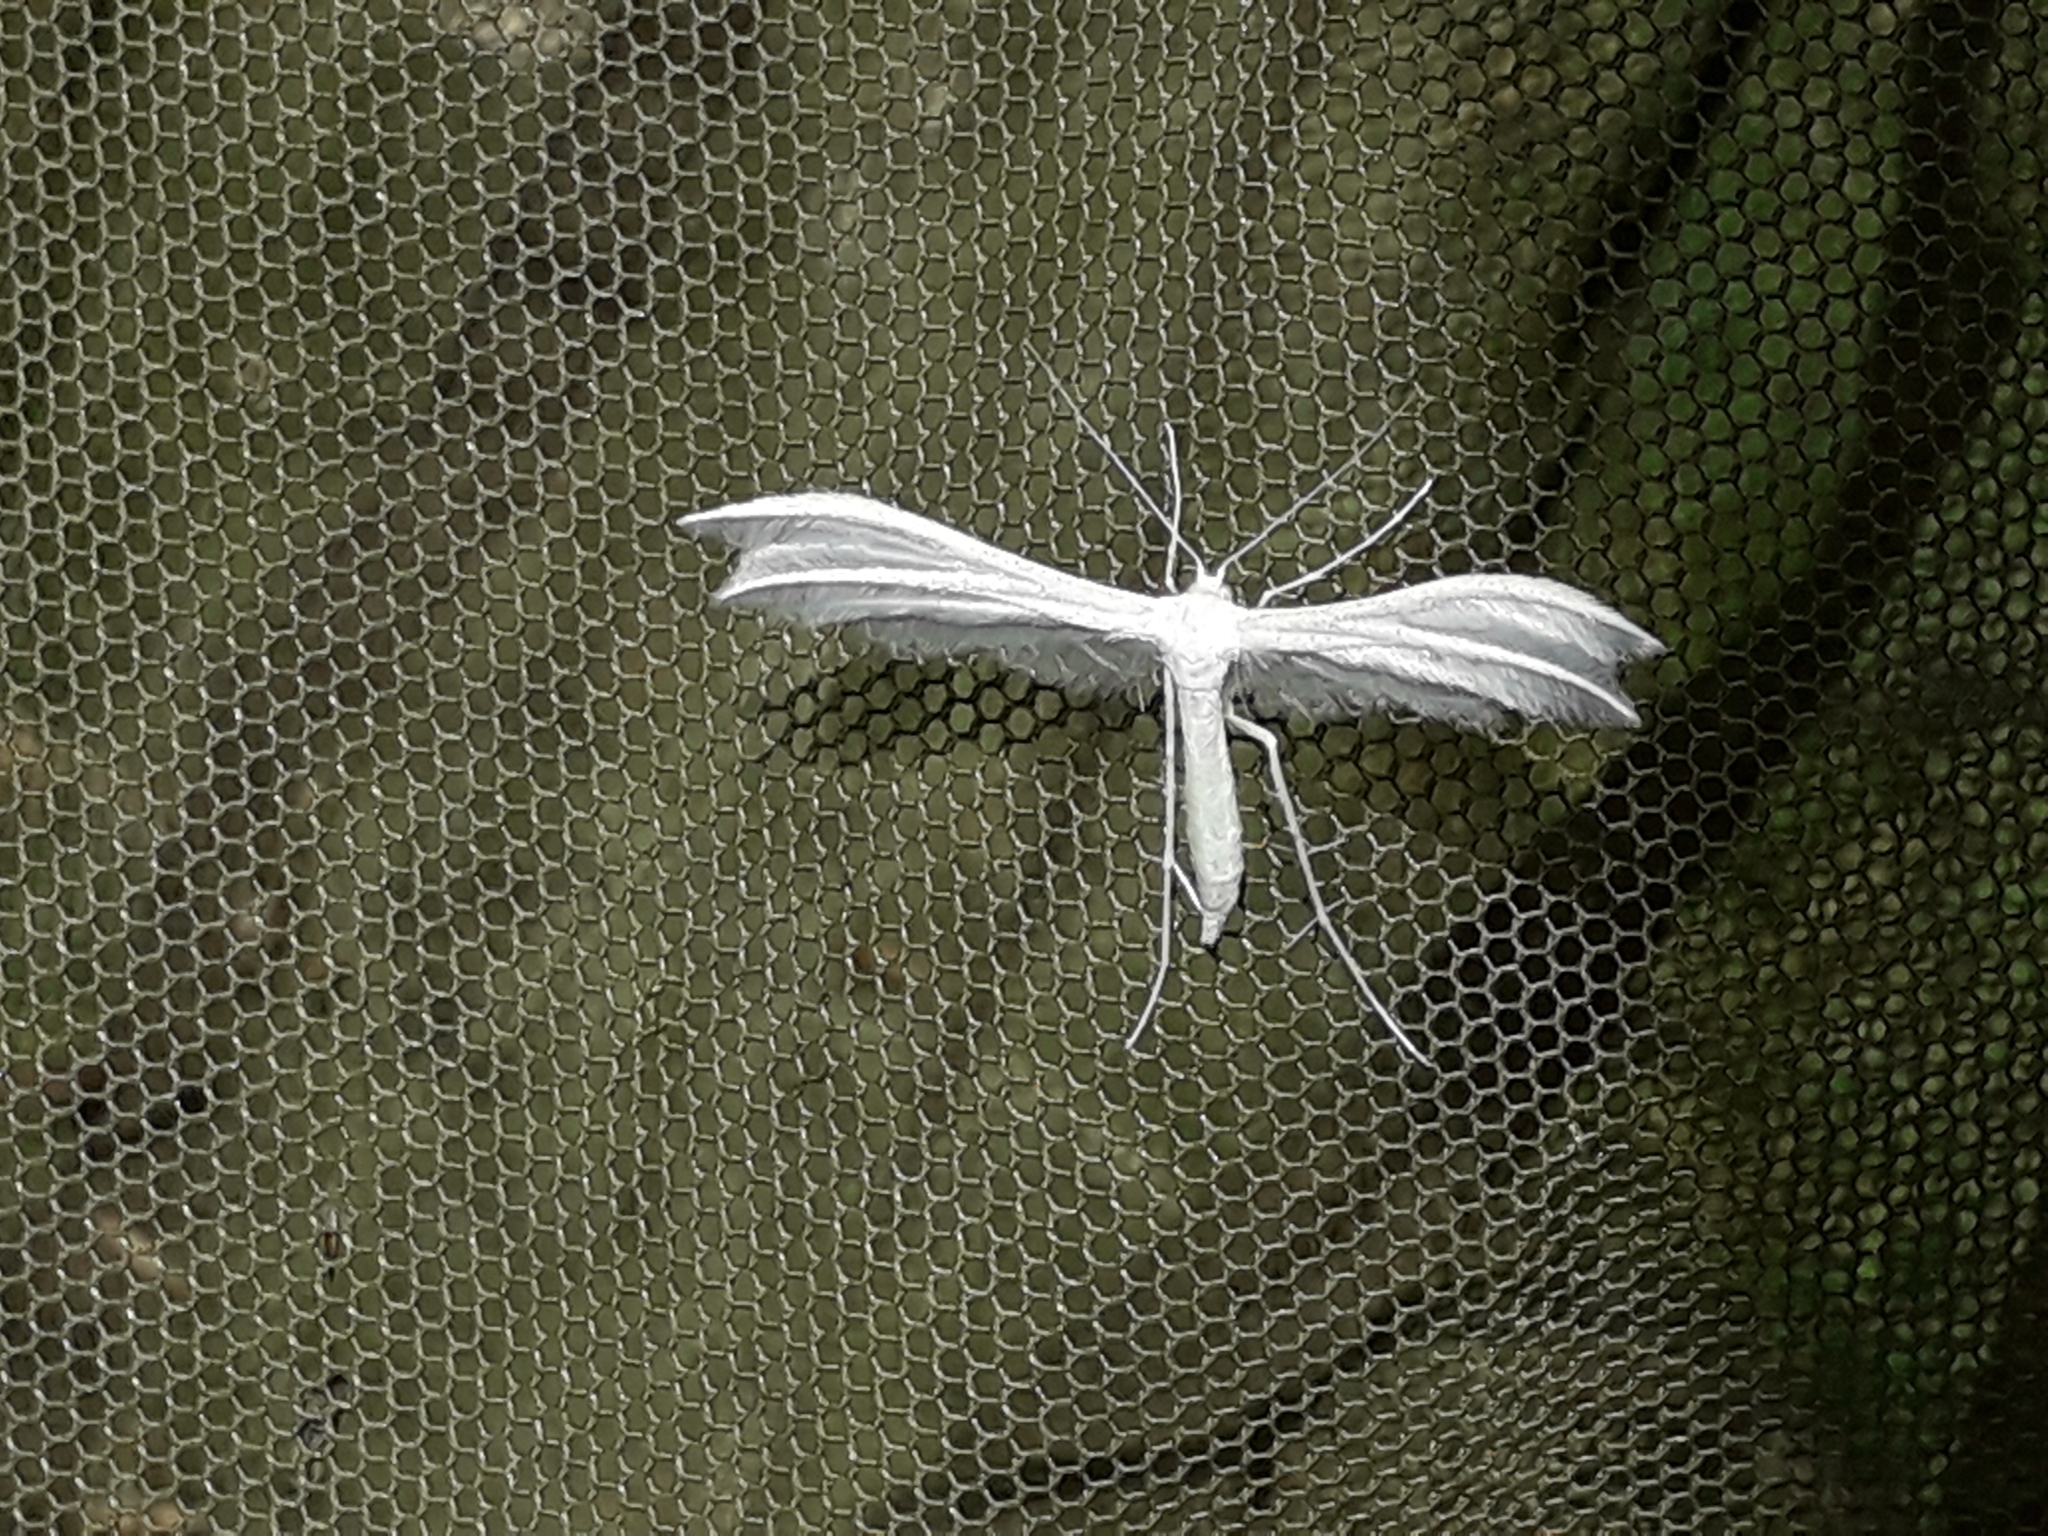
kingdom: Animalia
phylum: Arthropoda
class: Insecta
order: Lepidoptera
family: Pterophoridae
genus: Pterophorus
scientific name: Pterophorus pentadactyla
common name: White plume moth
